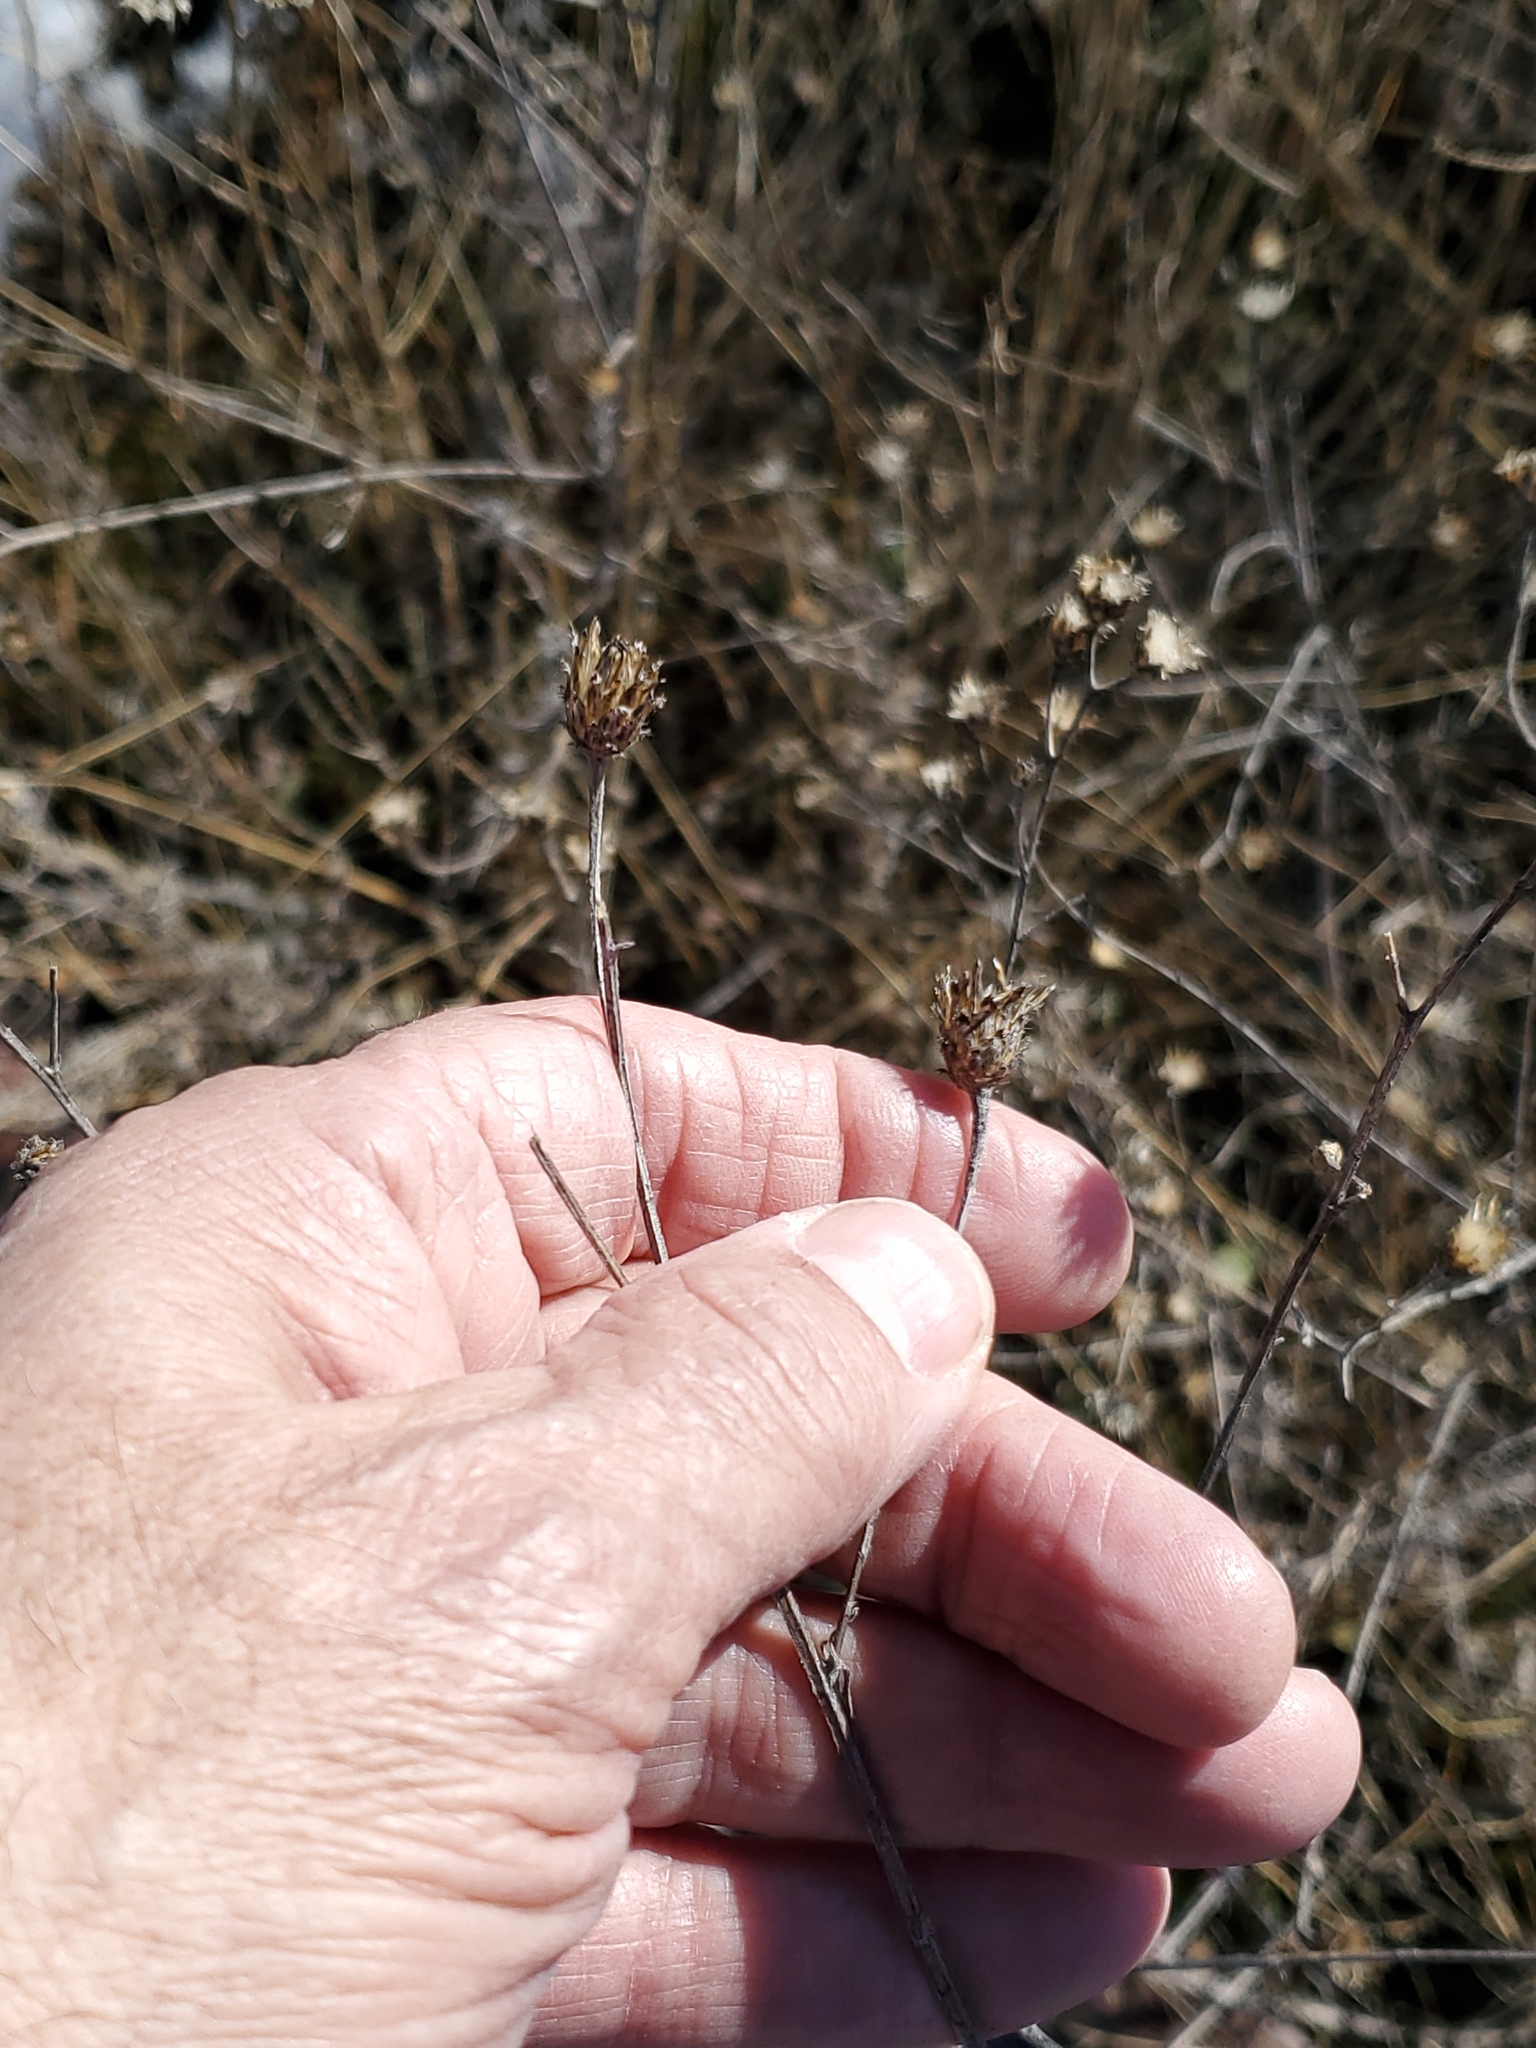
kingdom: Plantae
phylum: Tracheophyta
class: Magnoliopsida
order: Asterales
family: Asteraceae
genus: Centaurea
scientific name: Centaurea stoebe
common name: Spotted knapweed
